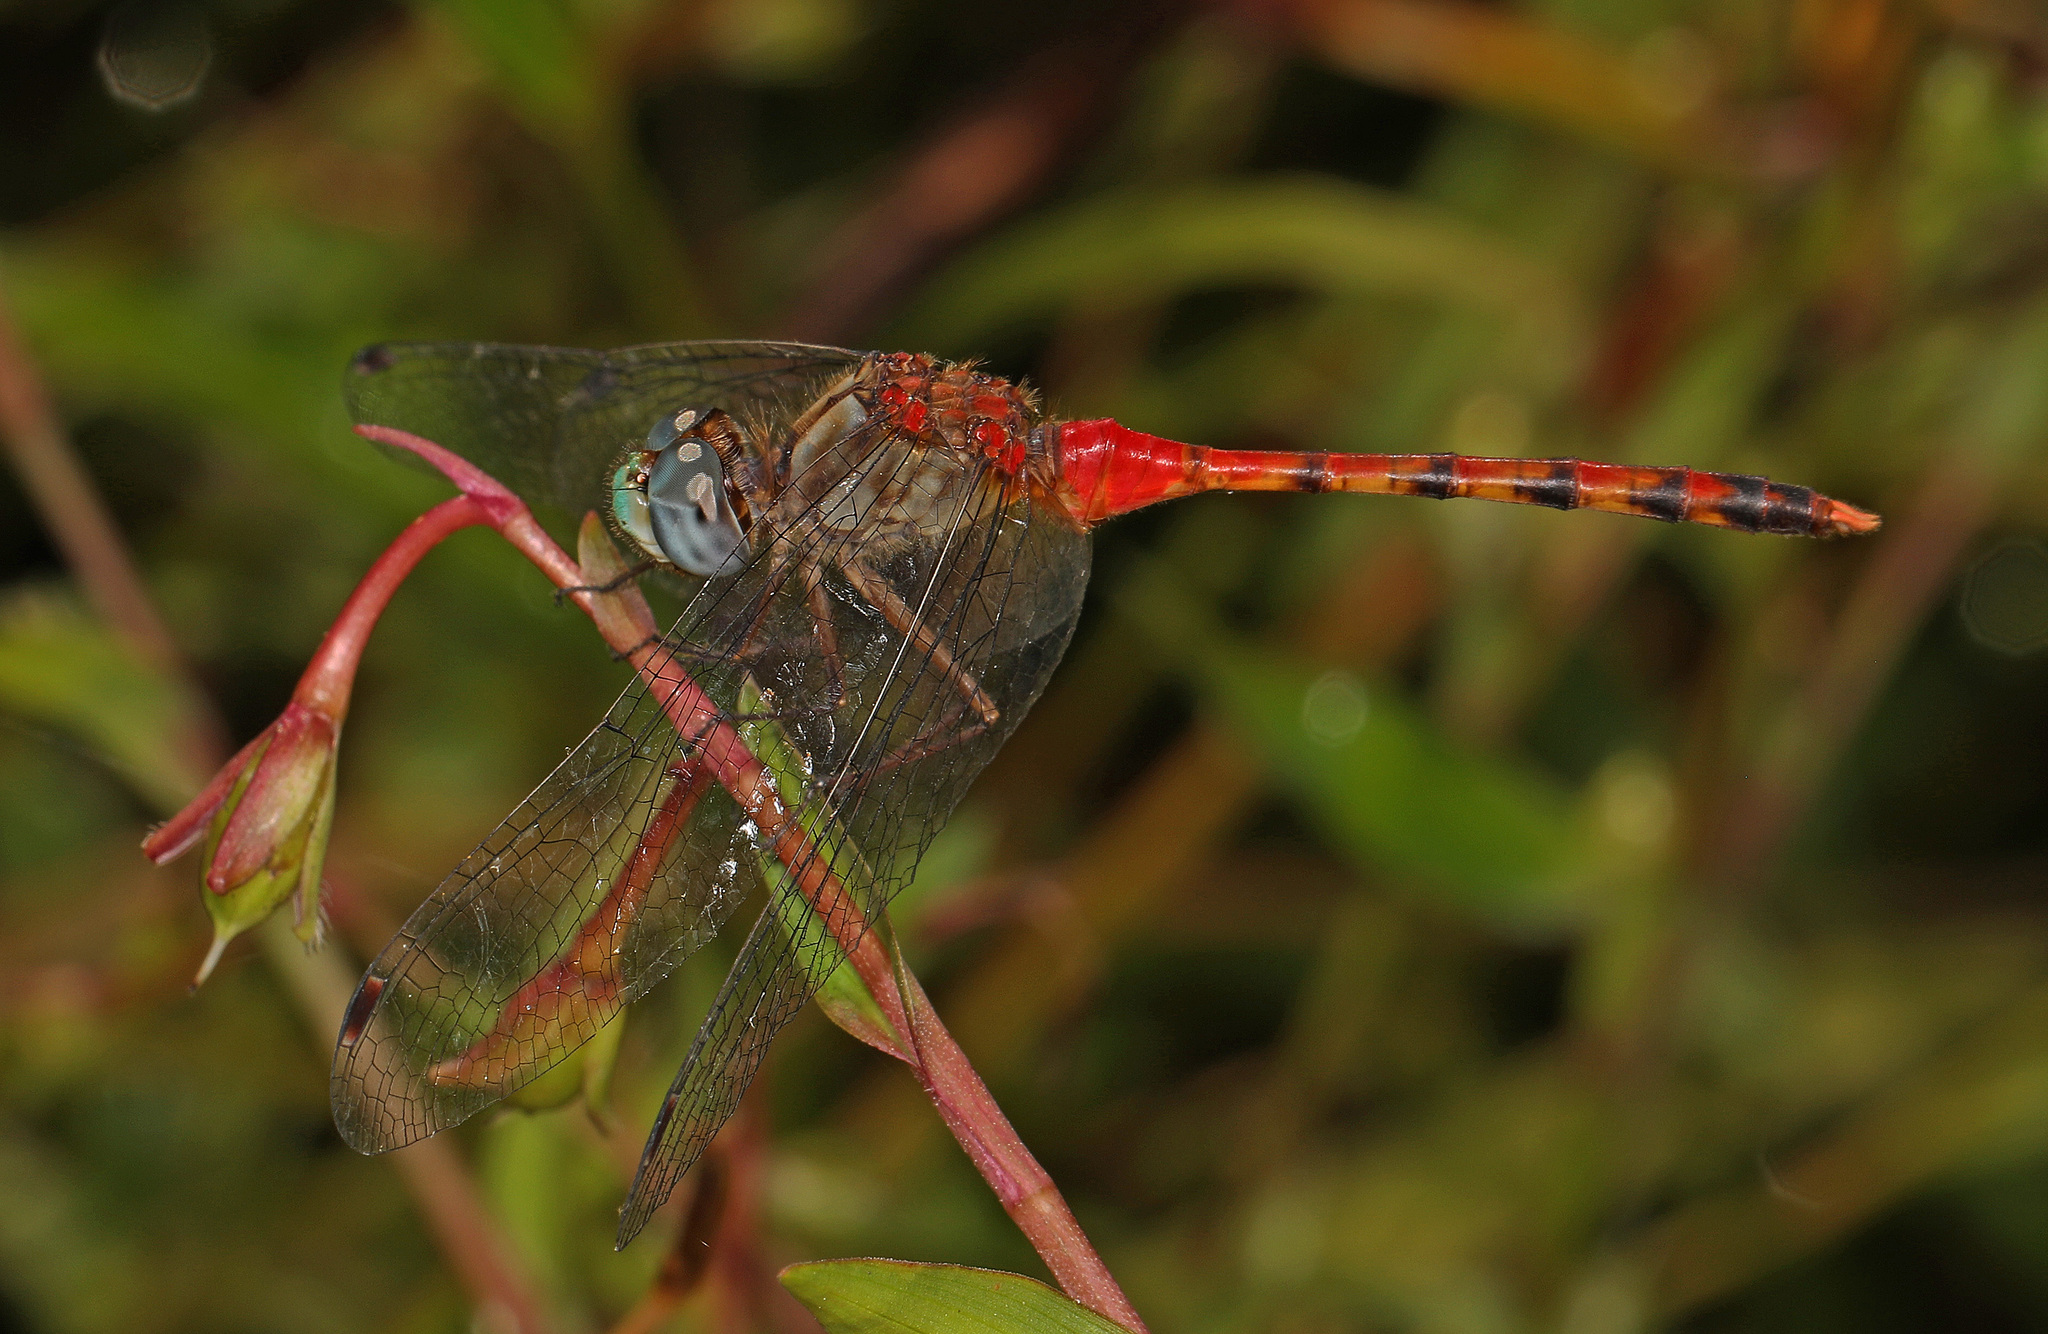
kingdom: Animalia
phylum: Arthropoda
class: Insecta
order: Odonata
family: Libellulidae
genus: Sympetrum
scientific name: Sympetrum ambiguum
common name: Blue-faced meadowhawk
